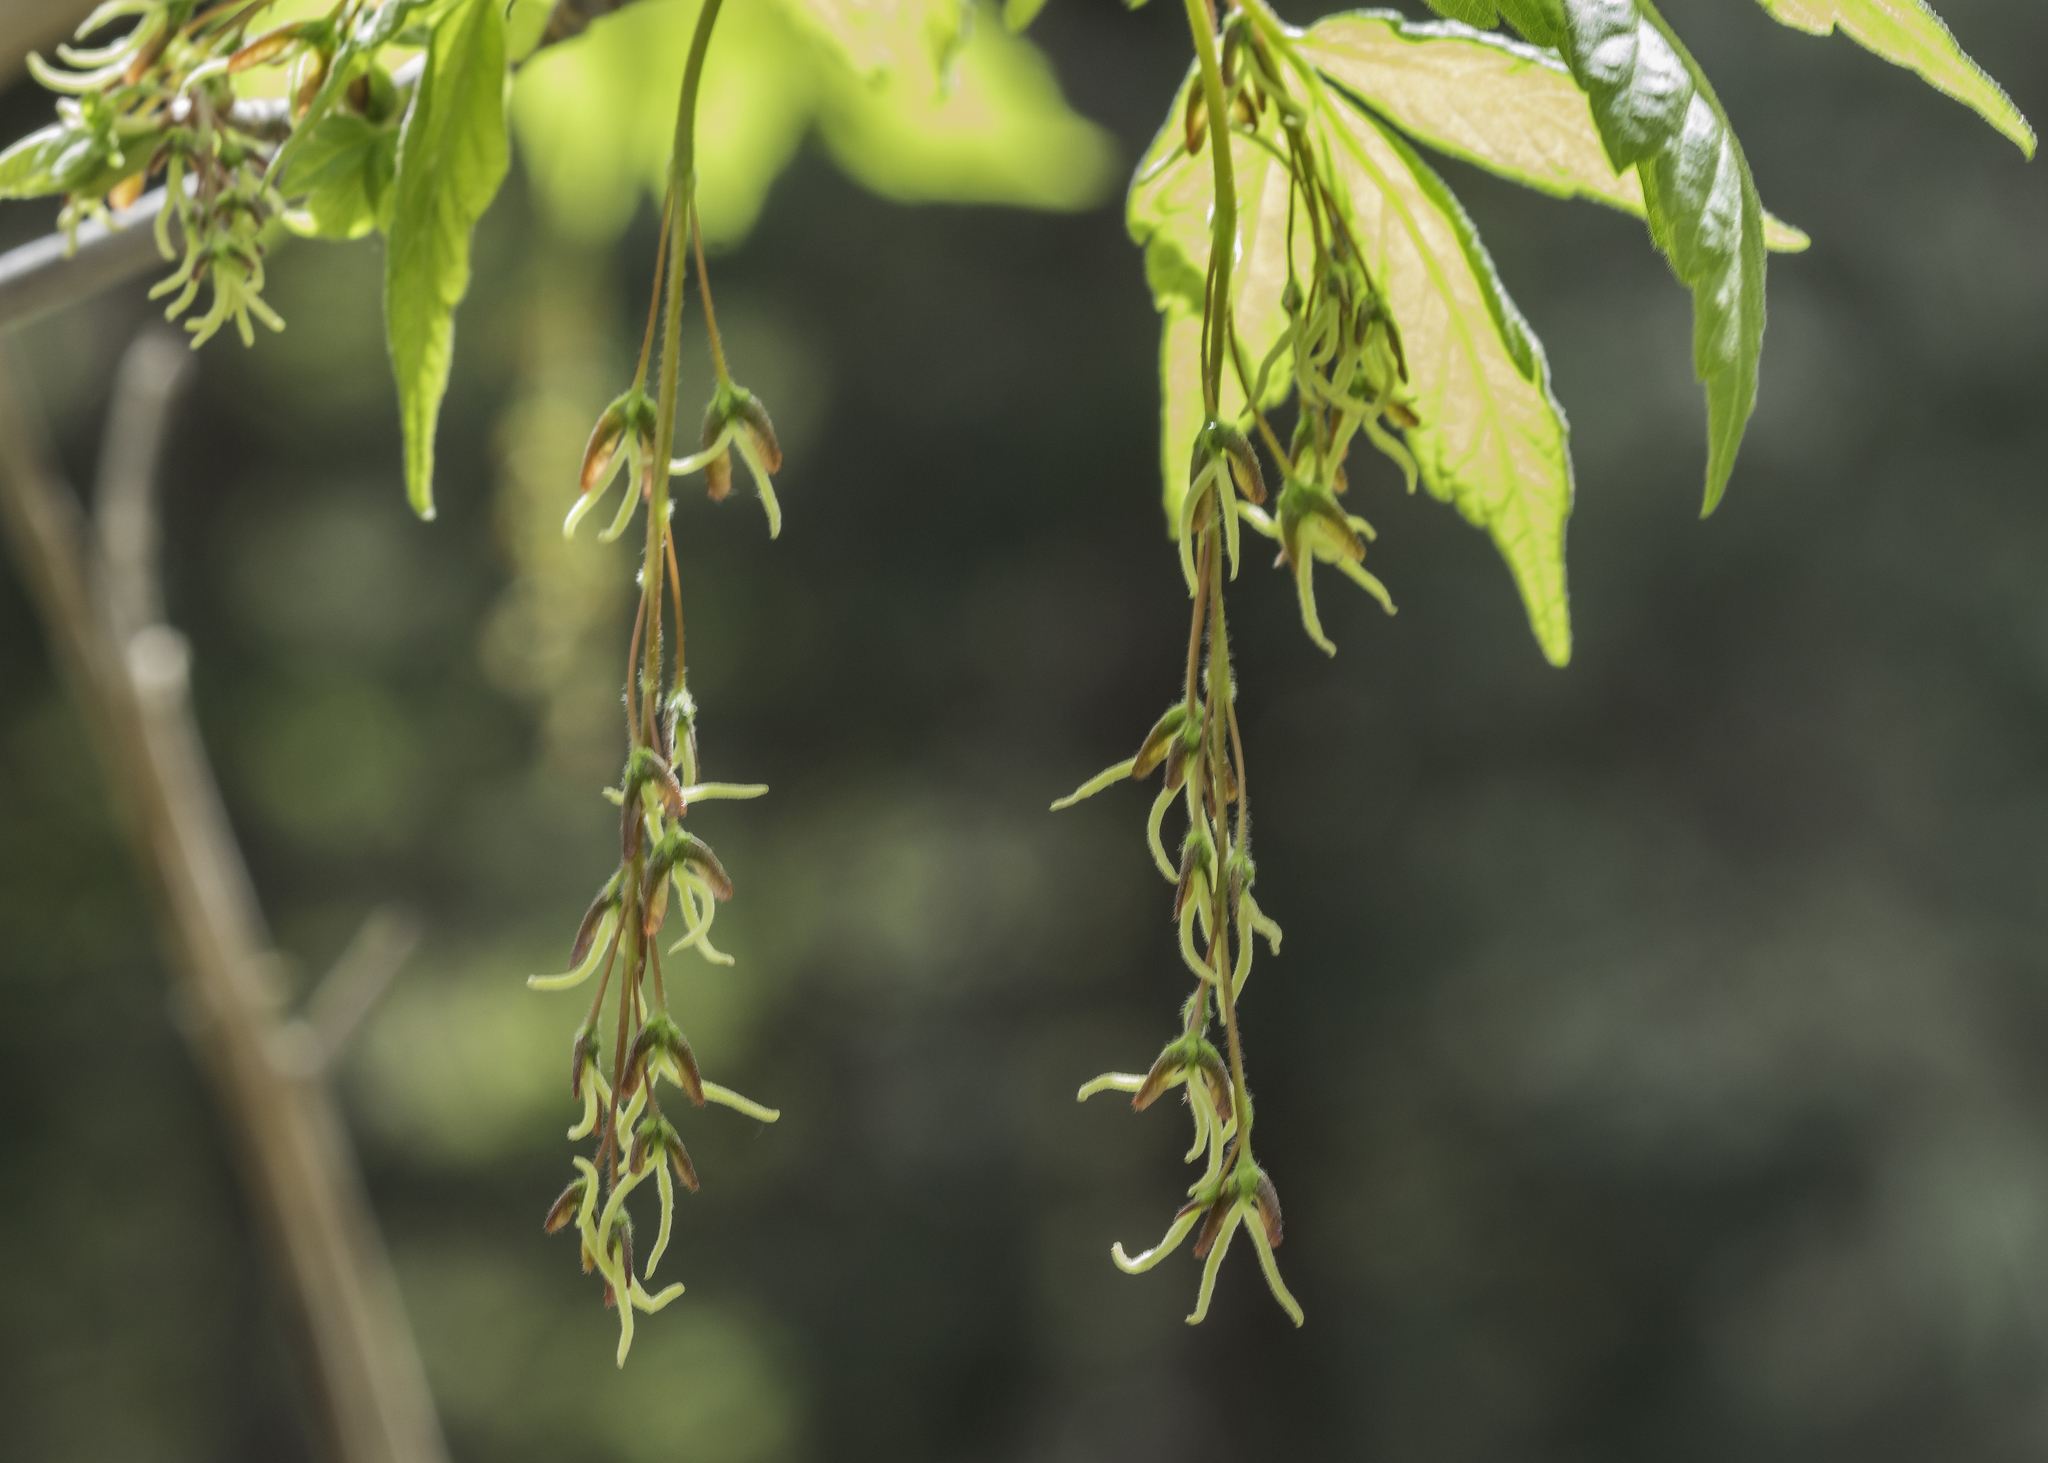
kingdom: Plantae
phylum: Tracheophyta
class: Magnoliopsida
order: Sapindales
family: Sapindaceae
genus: Acer
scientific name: Acer glabrum
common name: Rocky mountain maple
